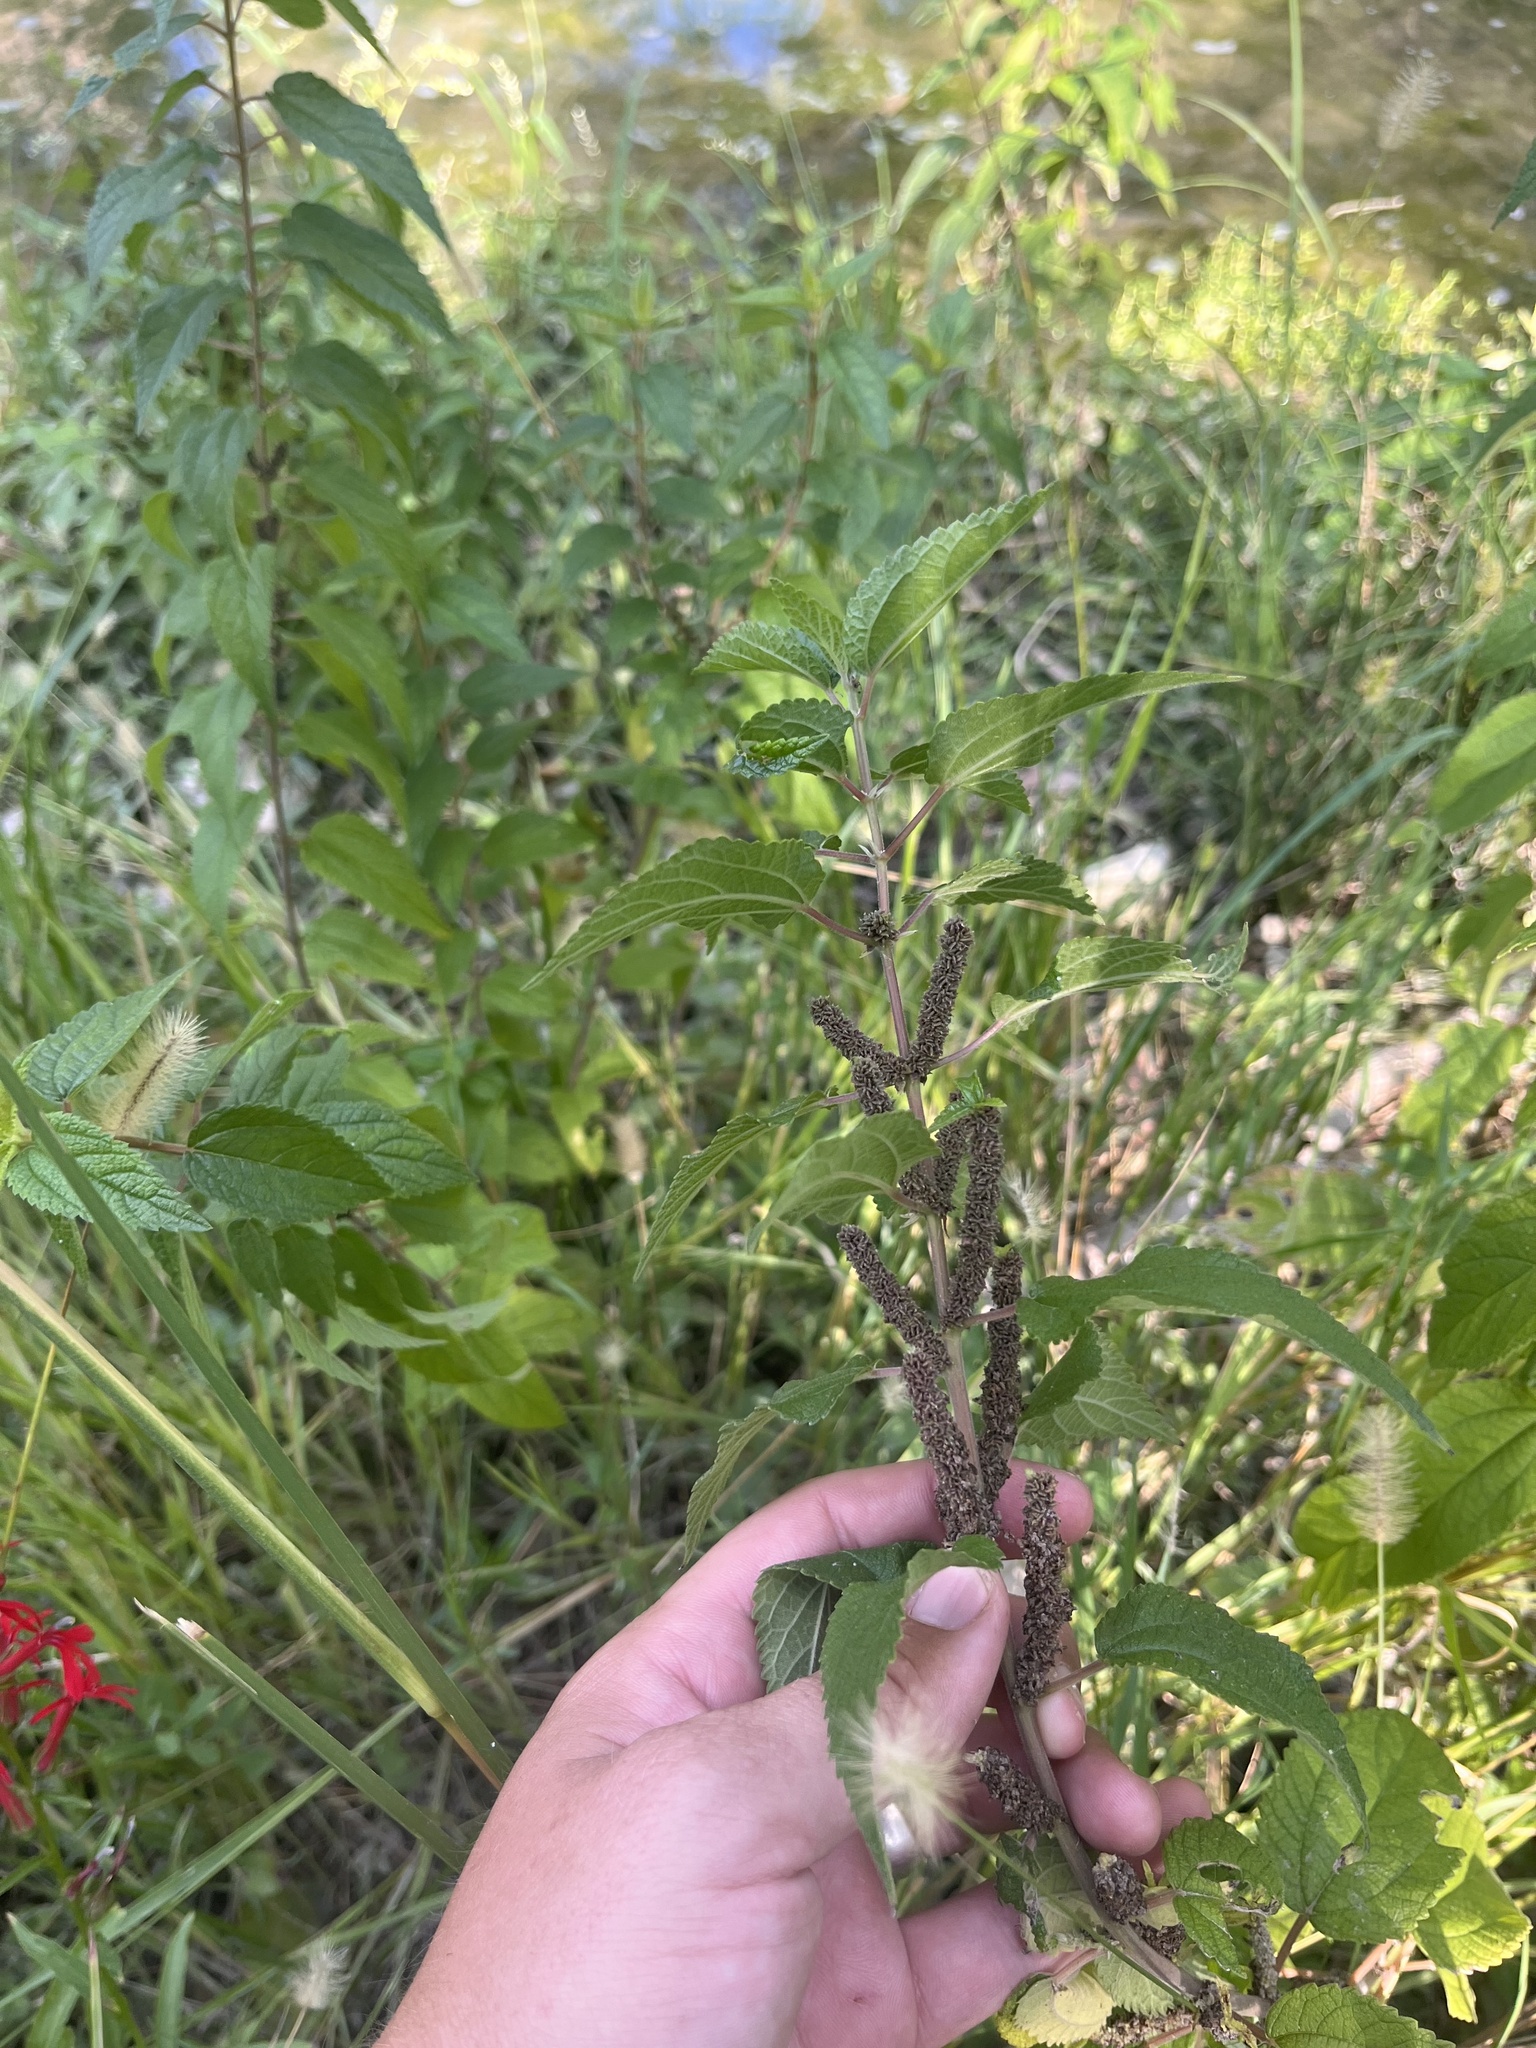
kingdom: Plantae
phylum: Tracheophyta
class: Magnoliopsida
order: Rosales
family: Urticaceae
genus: Boehmeria
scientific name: Boehmeria cylindrica
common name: Bog-hemp
